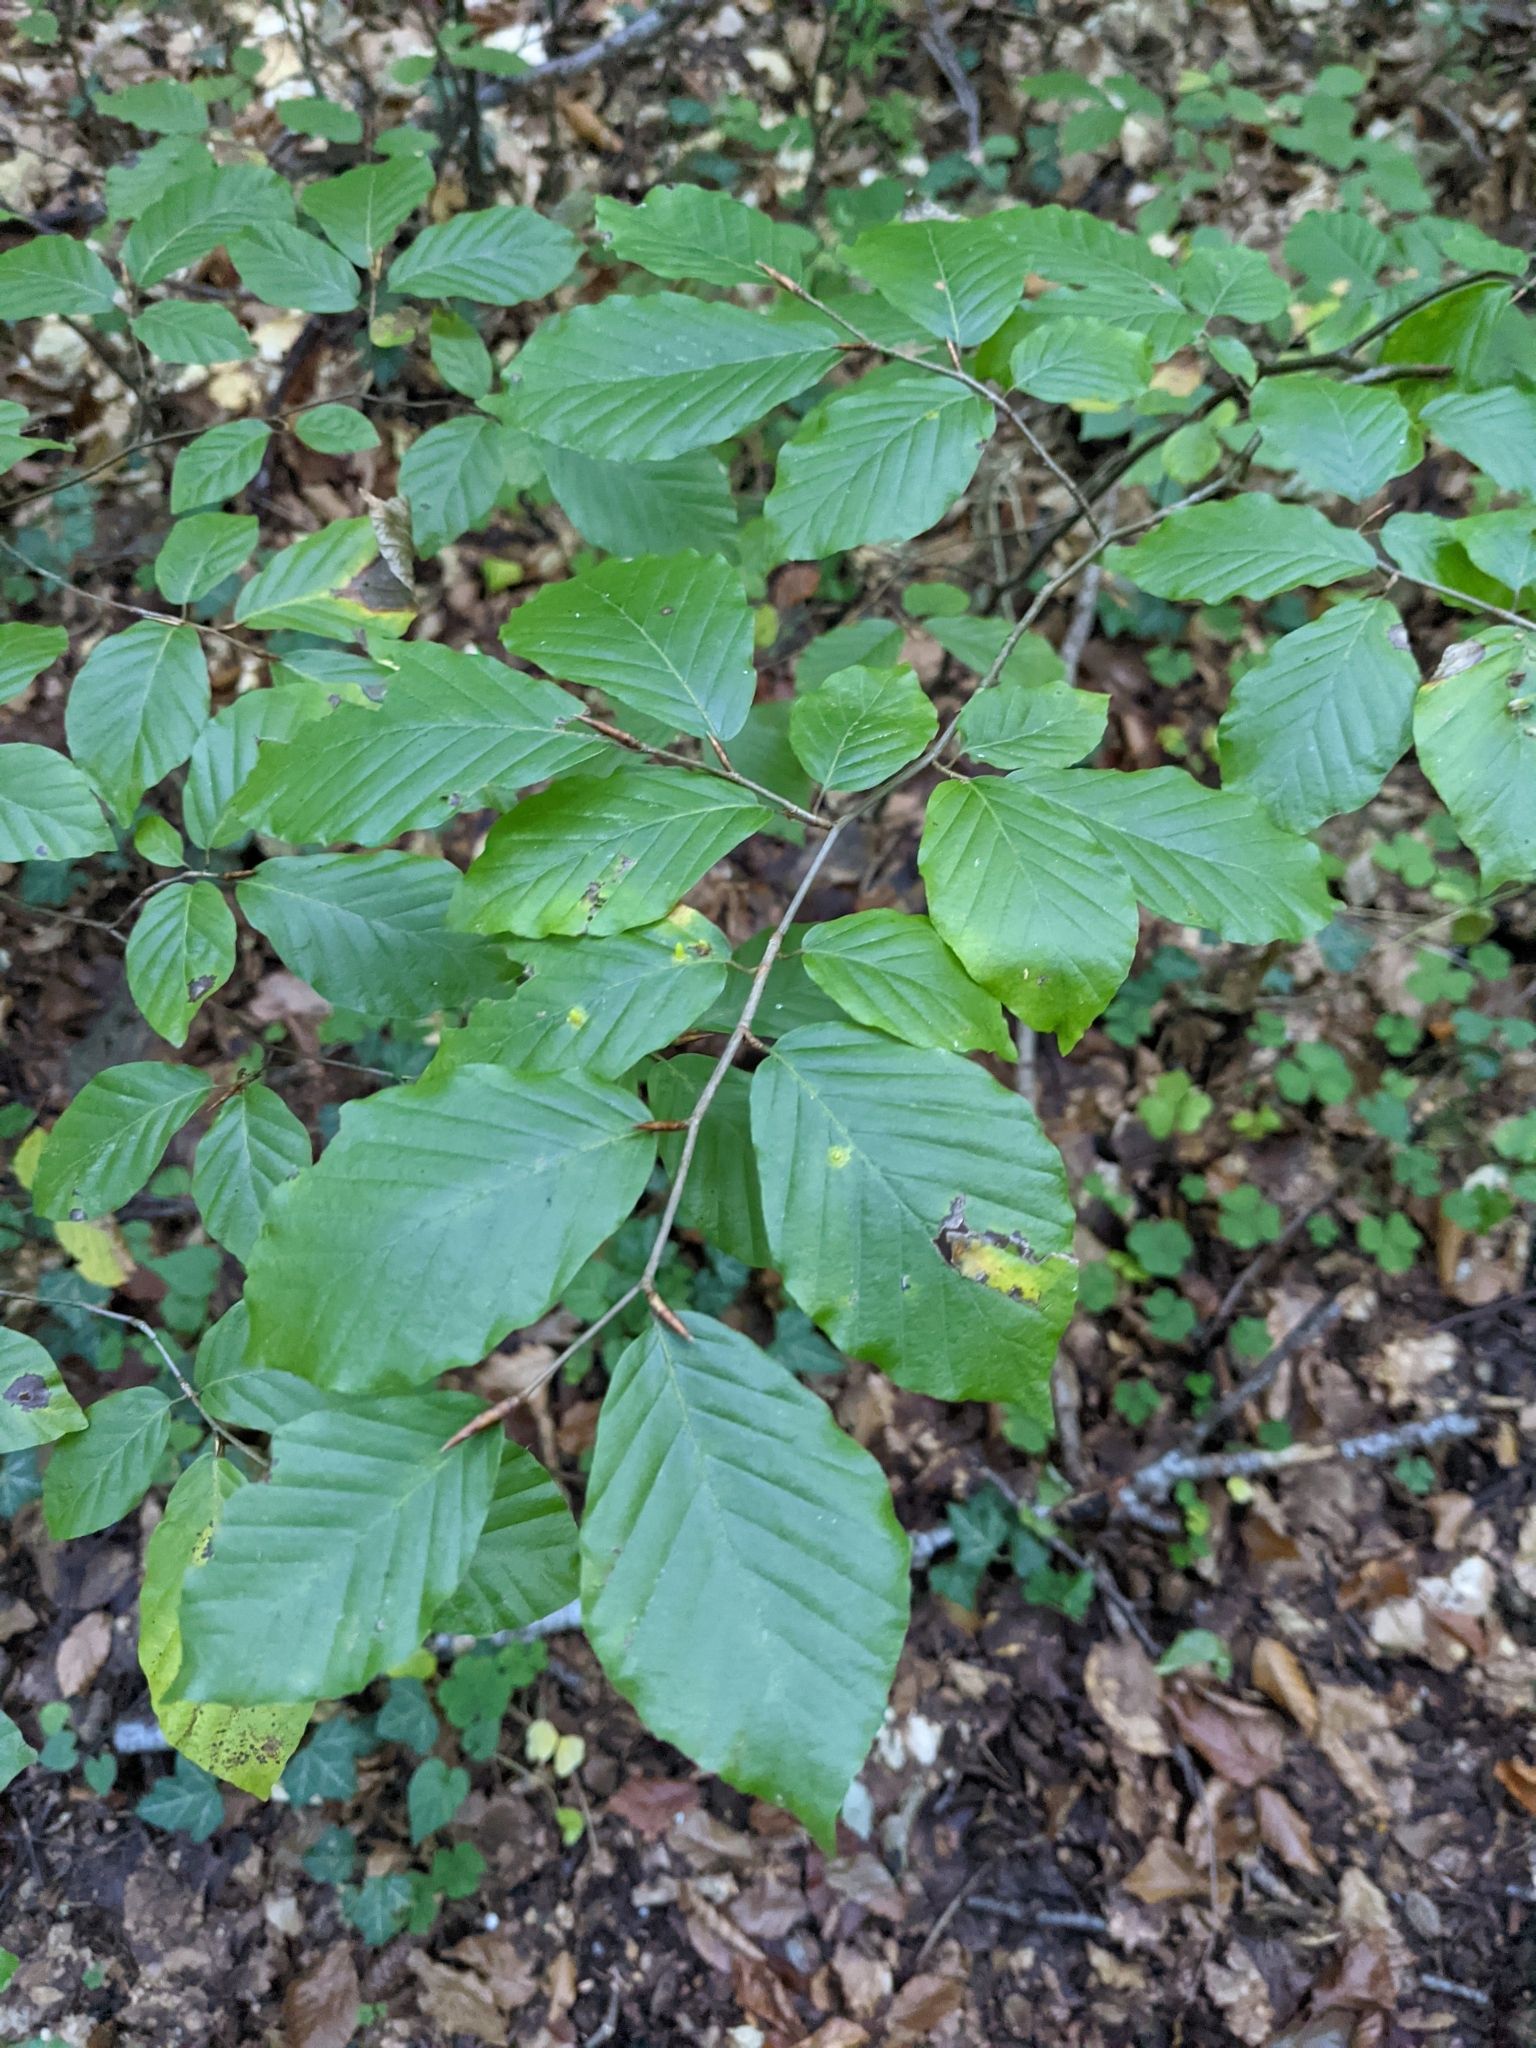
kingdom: Plantae
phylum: Tracheophyta
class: Magnoliopsida
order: Fagales
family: Fagaceae
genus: Fagus
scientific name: Fagus sylvatica
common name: Beech
